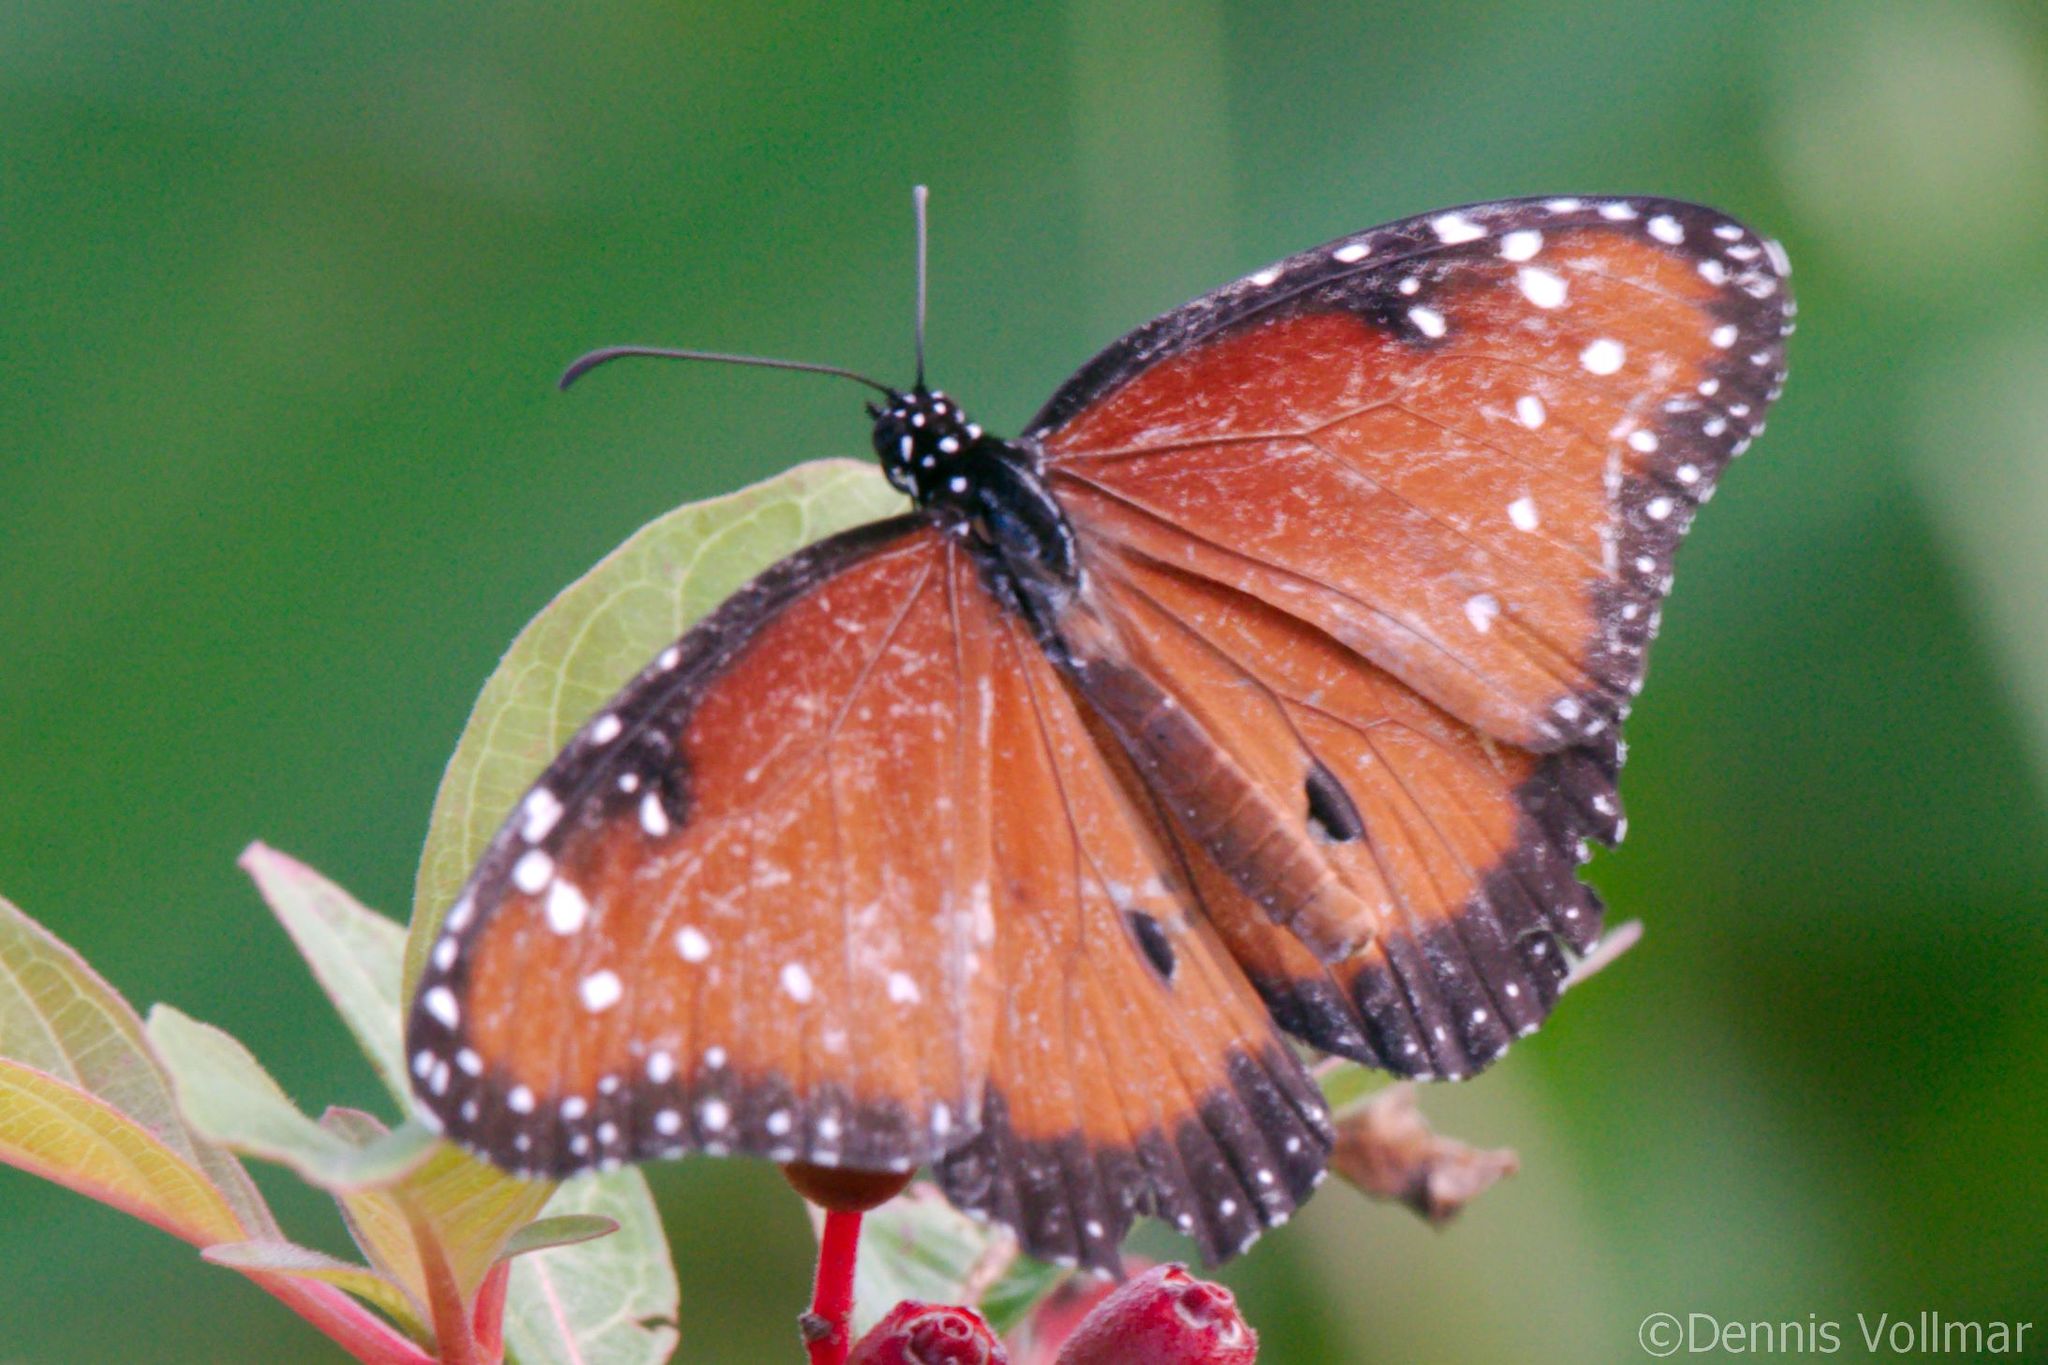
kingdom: Animalia
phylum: Arthropoda
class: Insecta
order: Lepidoptera
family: Nymphalidae
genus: Danaus
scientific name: Danaus gilippus
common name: Queen
